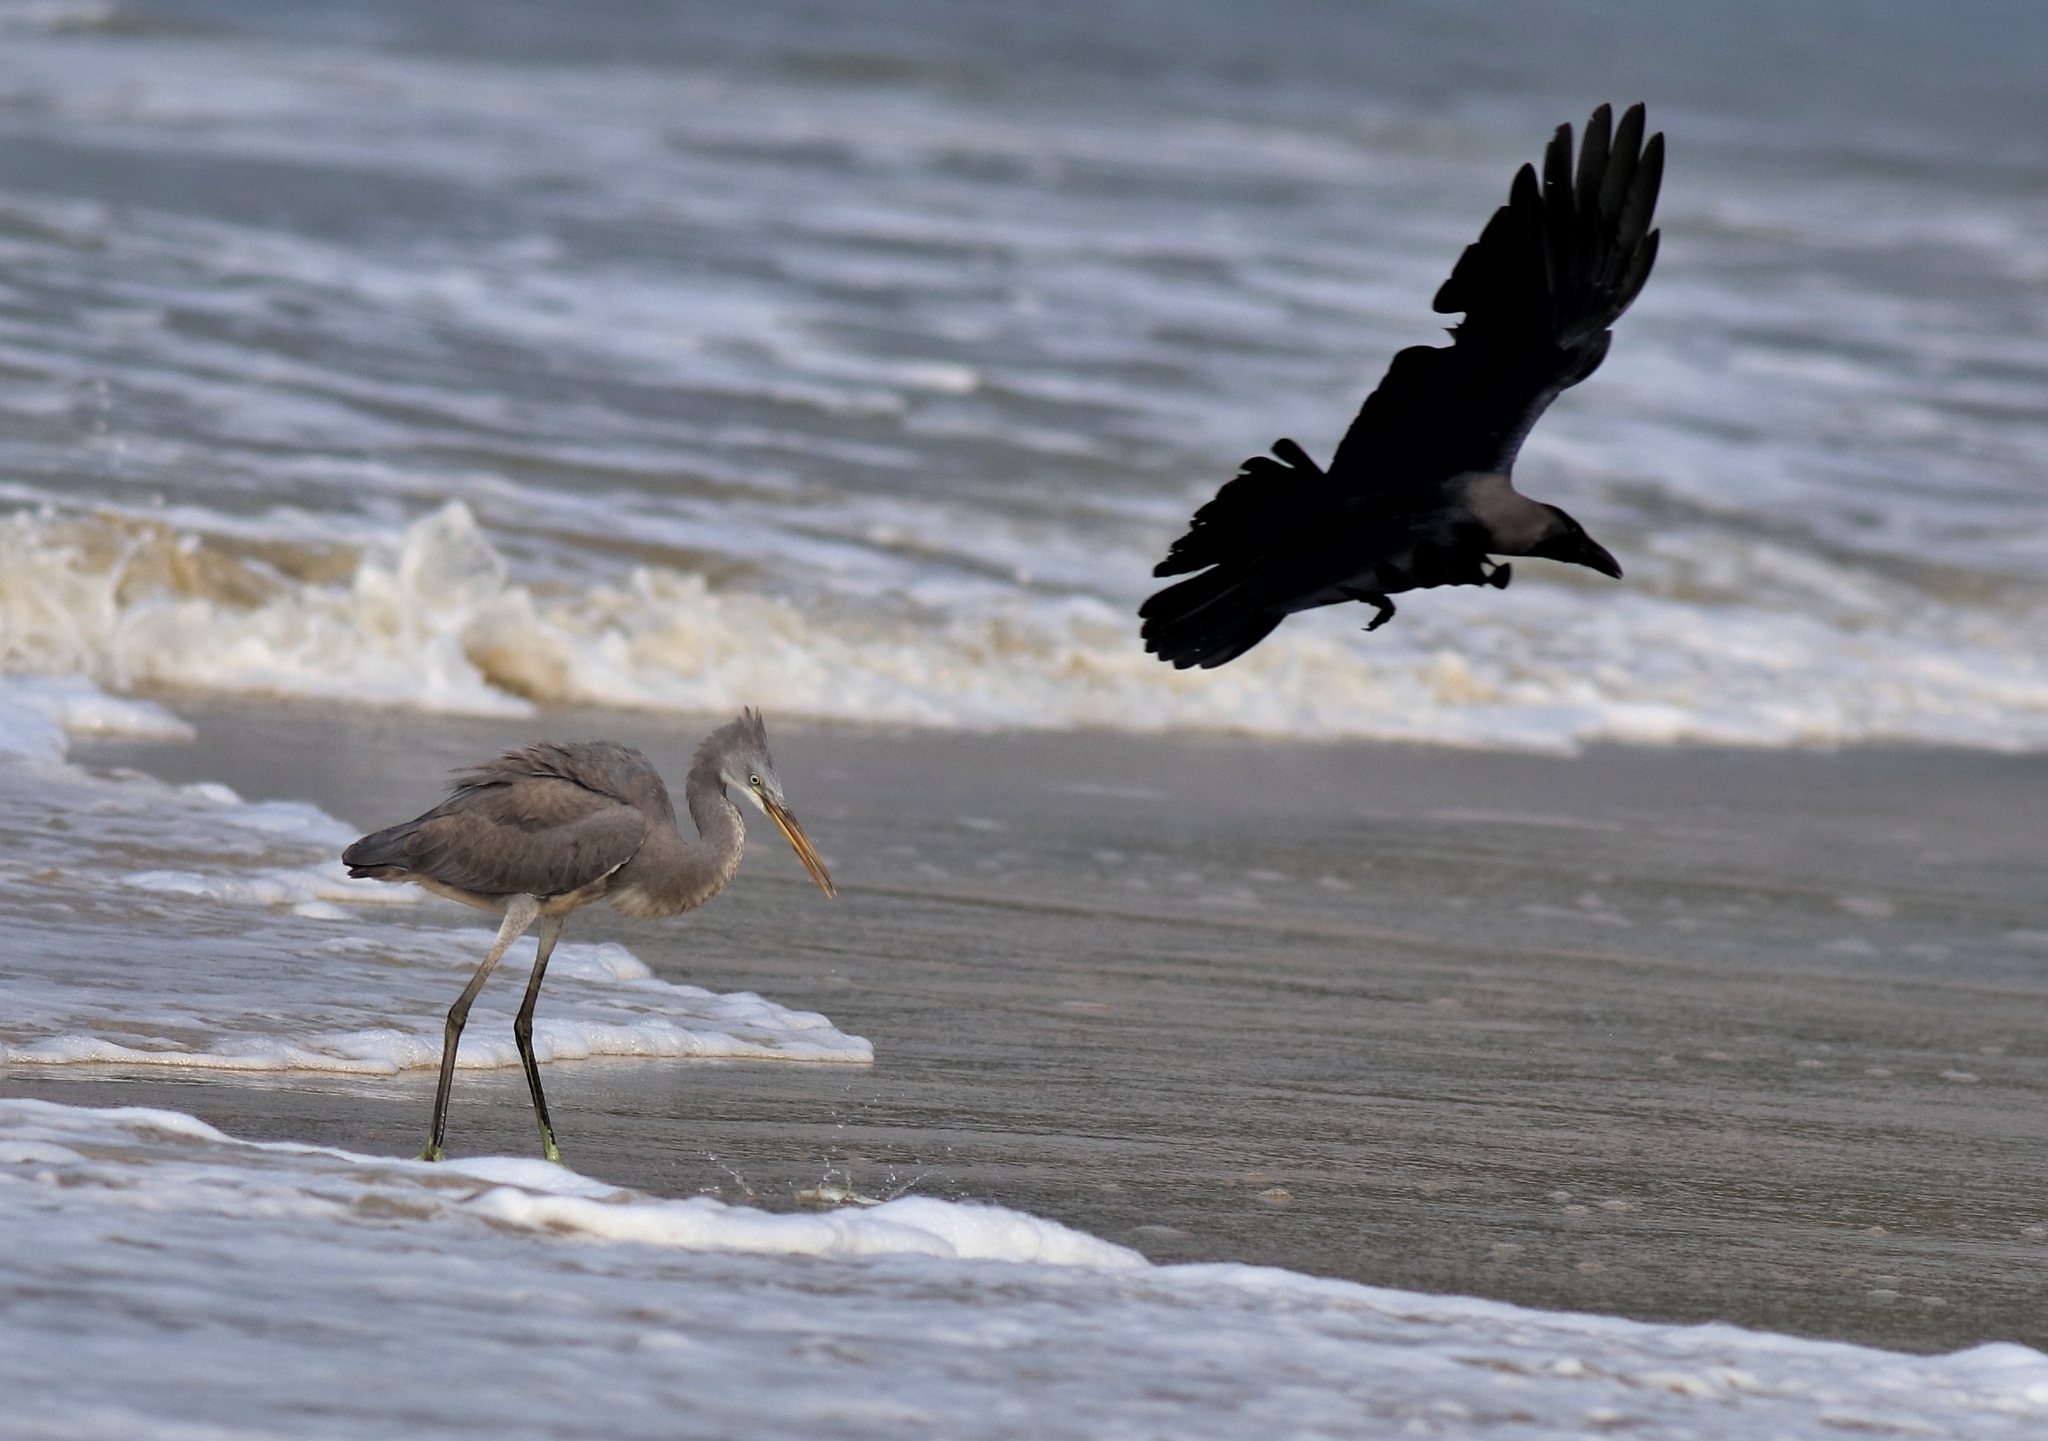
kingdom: Animalia
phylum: Chordata
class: Aves
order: Passeriformes
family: Corvidae
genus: Corvus
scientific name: Corvus splendens
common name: House crow
